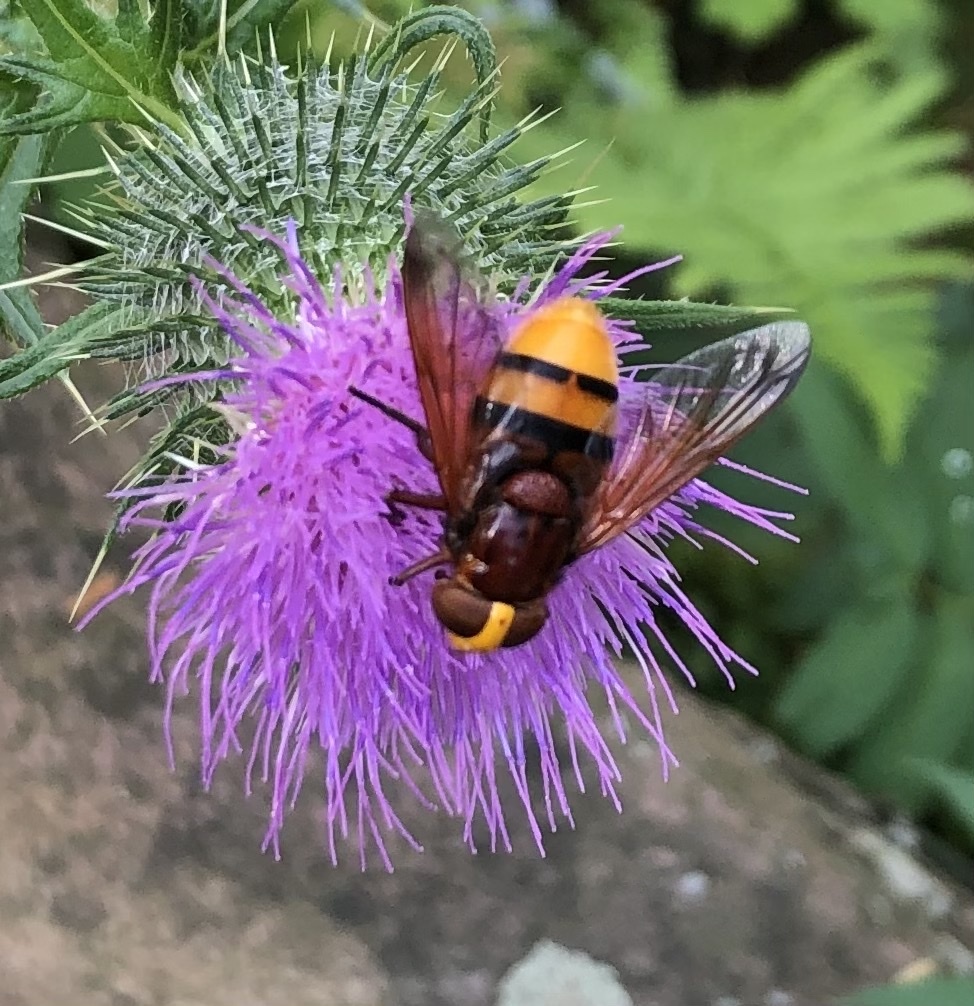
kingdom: Animalia
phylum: Arthropoda
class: Insecta
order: Diptera
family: Syrphidae
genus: Volucella
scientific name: Volucella zonaria
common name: Hornet hoverfly
